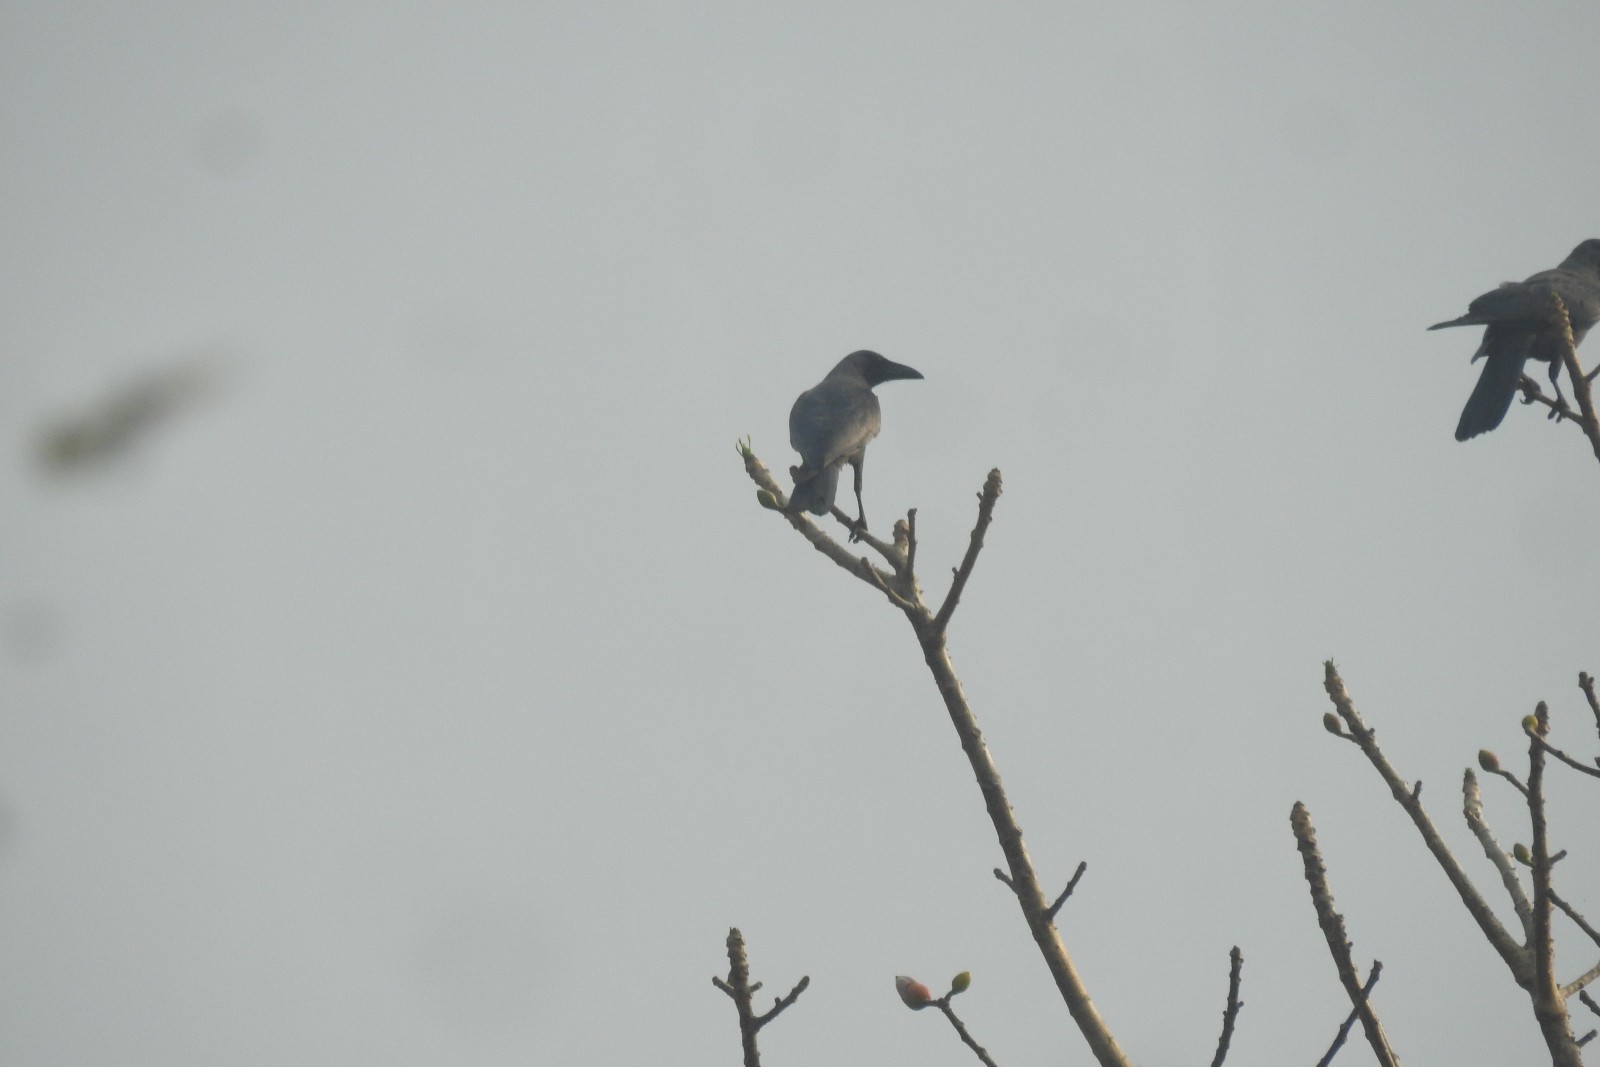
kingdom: Animalia
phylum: Chordata
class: Aves
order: Passeriformes
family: Corvidae
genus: Corvus
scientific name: Corvus splendens
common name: House crow
